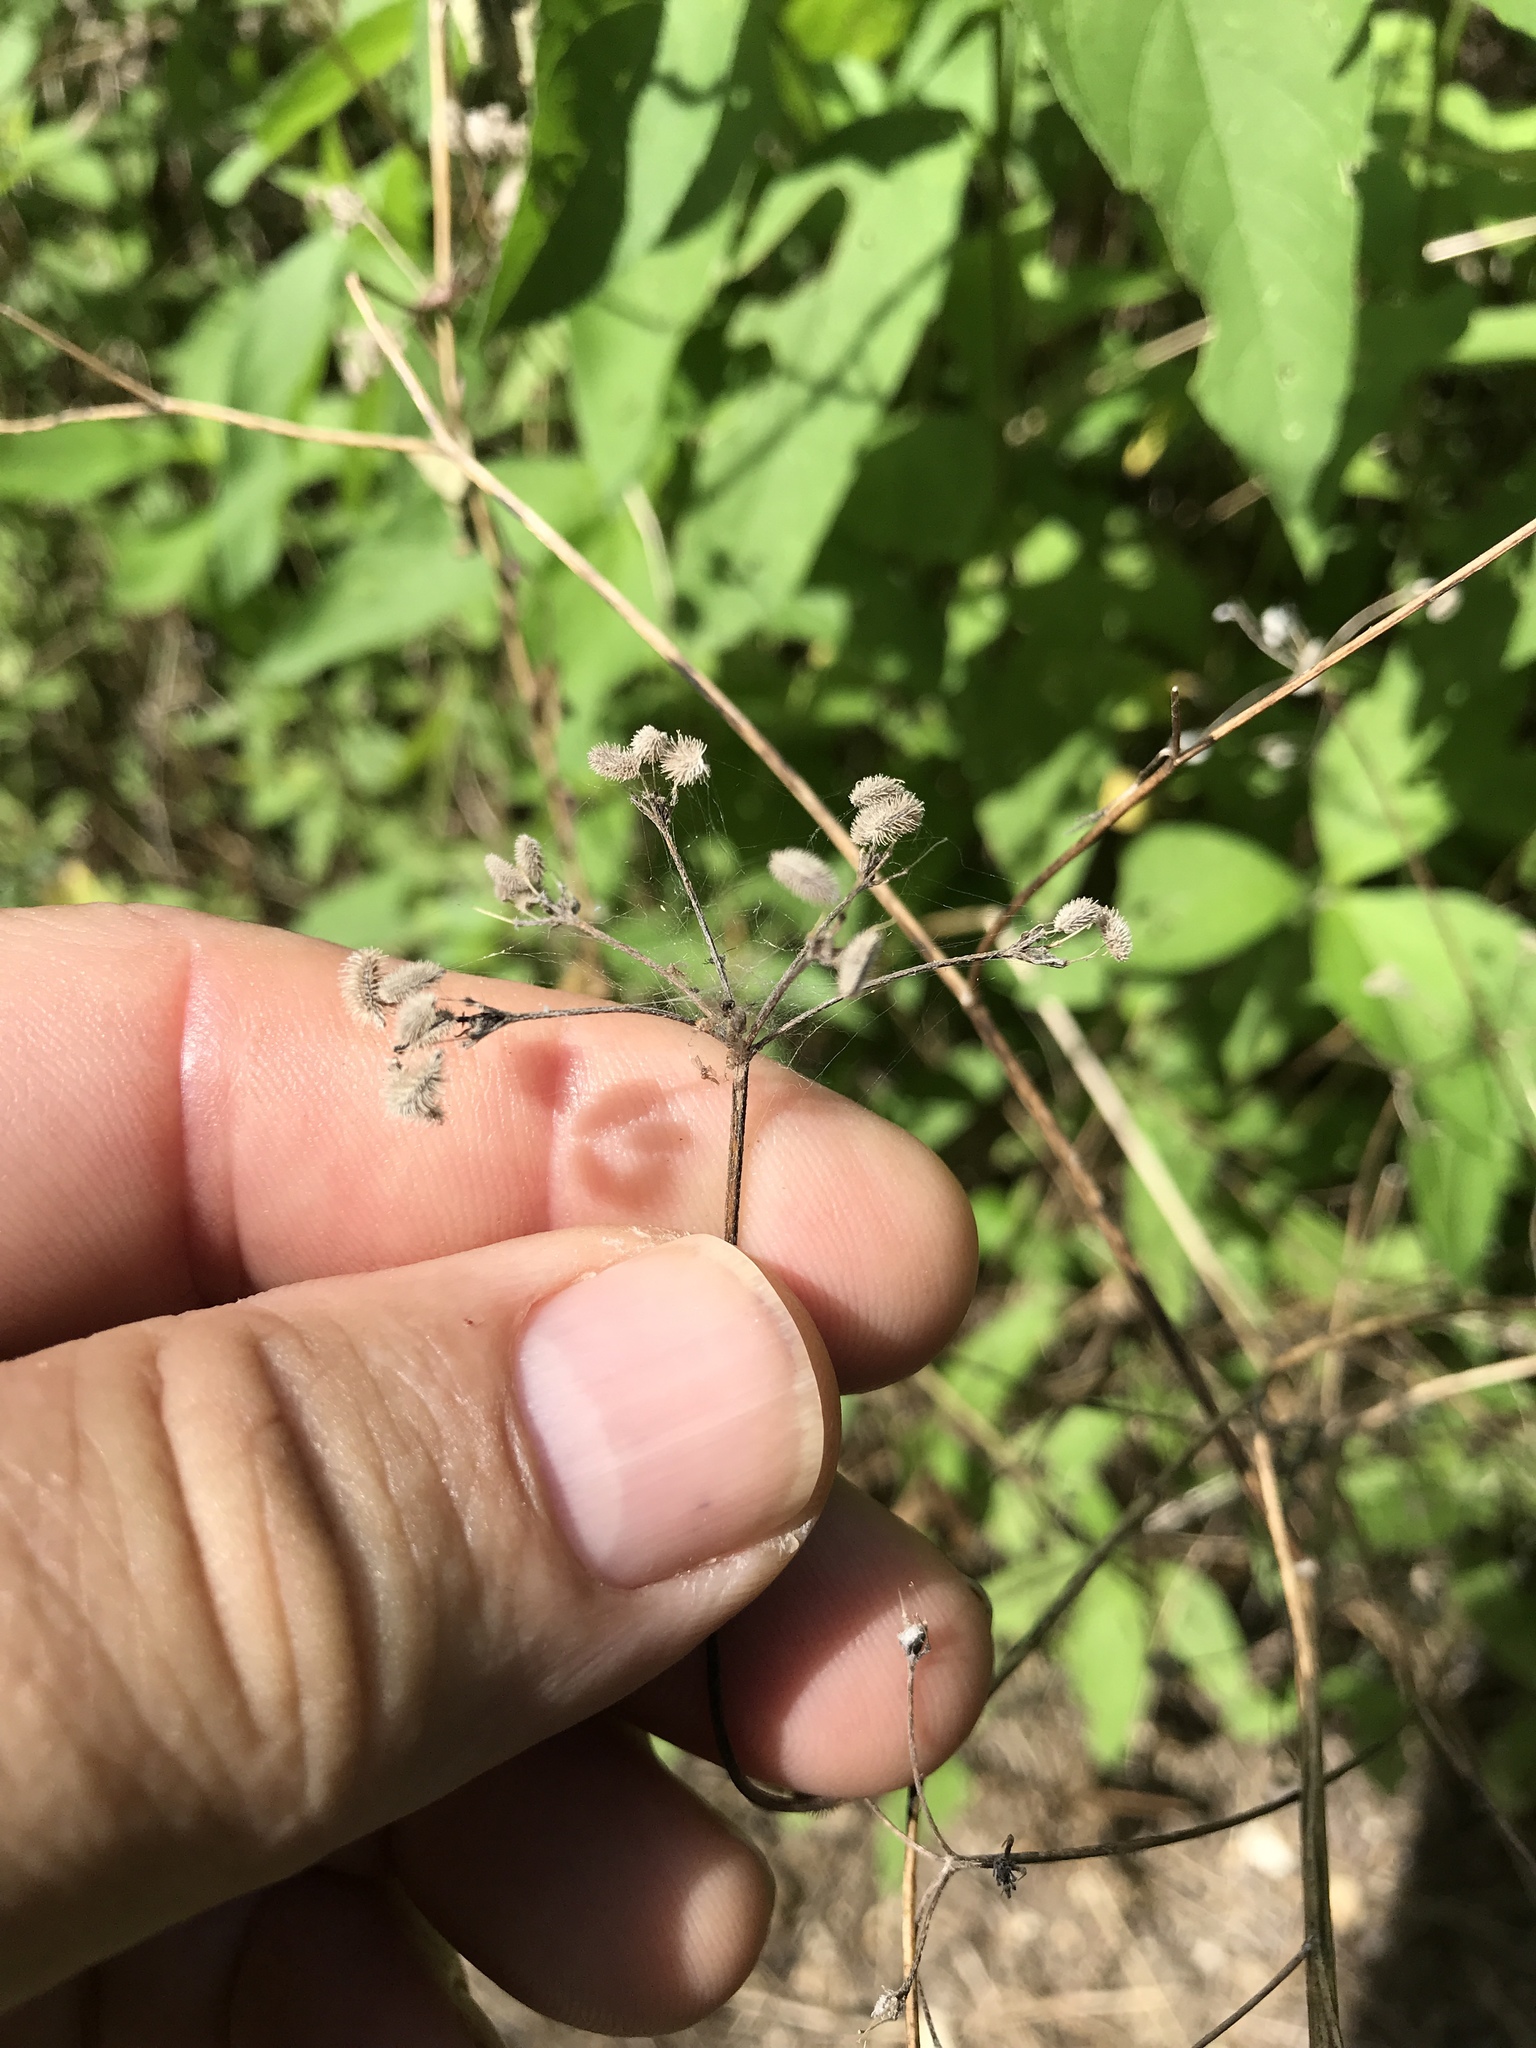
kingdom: Plantae
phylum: Tracheophyta
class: Magnoliopsida
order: Apiales
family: Apiaceae
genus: Torilis
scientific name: Torilis arvensis
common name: Spreading hedge-parsley
